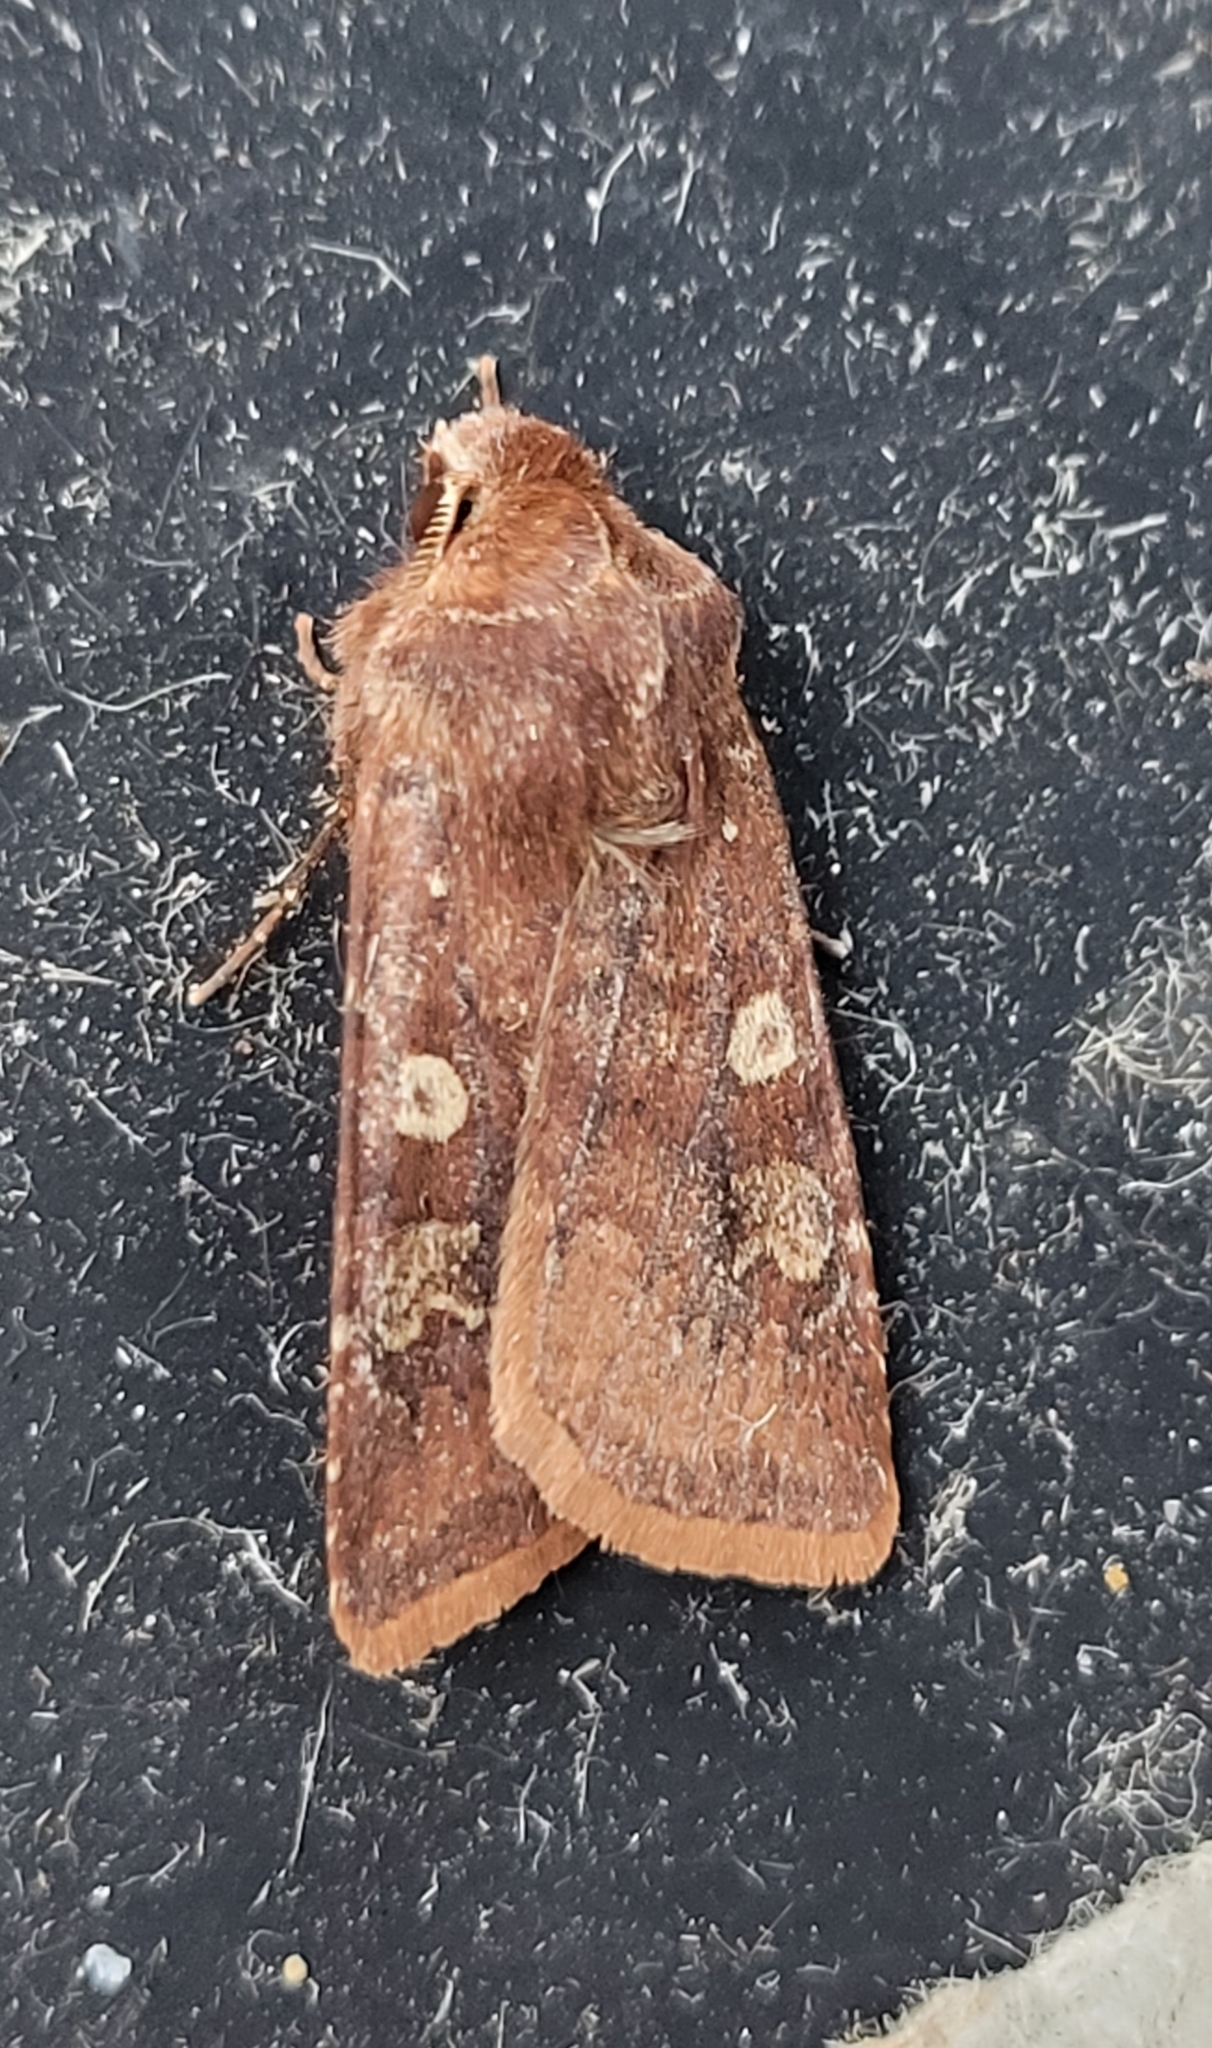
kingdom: Animalia
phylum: Arthropoda
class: Insecta
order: Lepidoptera
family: Noctuidae
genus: Cerastis
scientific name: Cerastis leucographa
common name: White-marked
